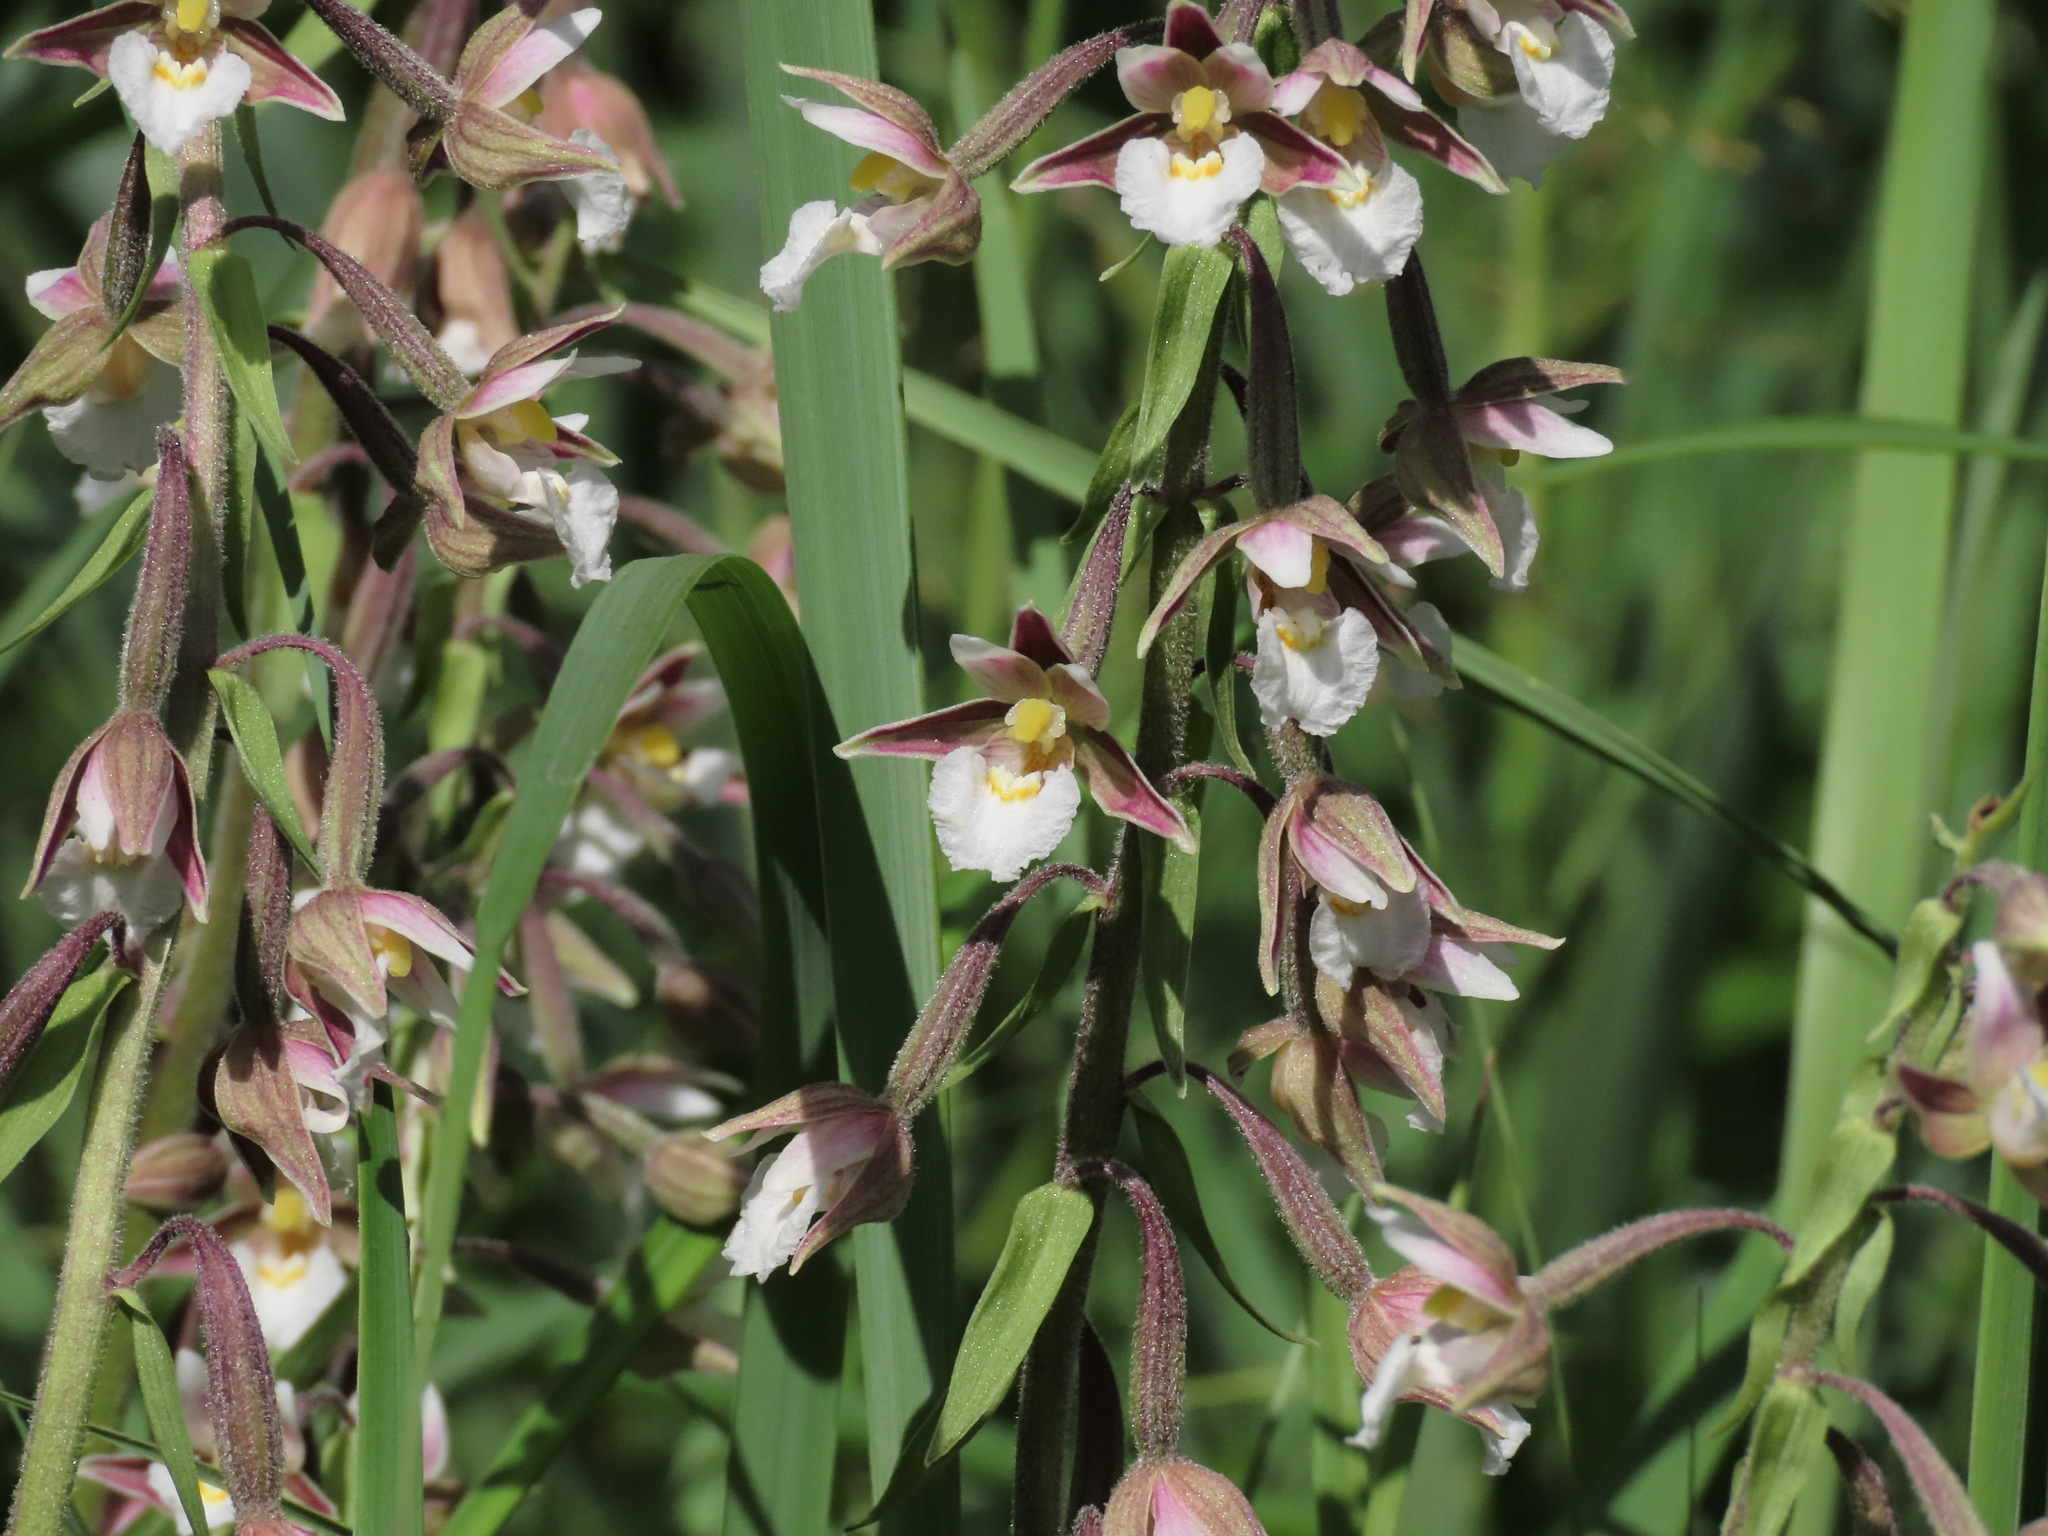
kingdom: Plantae
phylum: Tracheophyta
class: Liliopsida
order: Asparagales
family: Orchidaceae
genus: Epipactis
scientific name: Epipactis palustris
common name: Marsh helleborine
